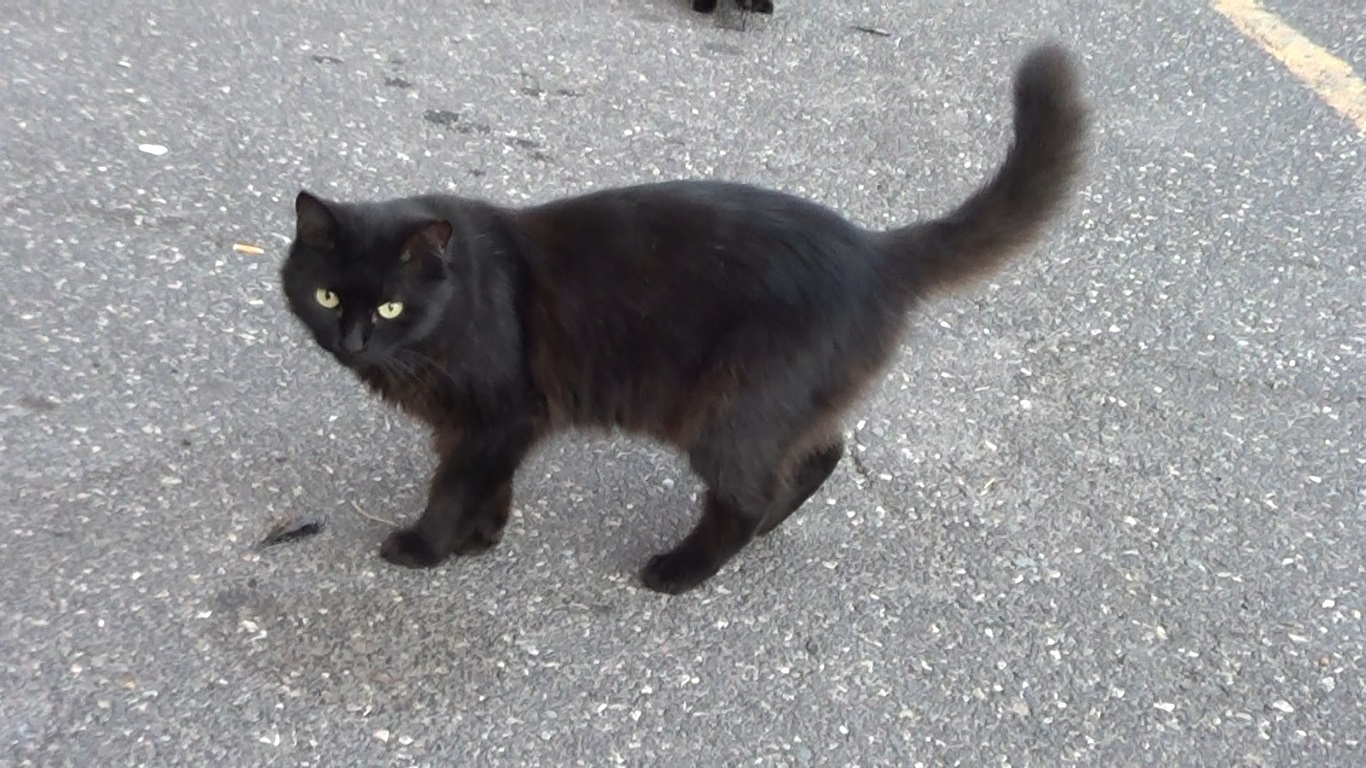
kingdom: Animalia
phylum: Chordata
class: Mammalia
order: Carnivora
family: Felidae
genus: Felis
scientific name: Felis catus
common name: Domestic cat
